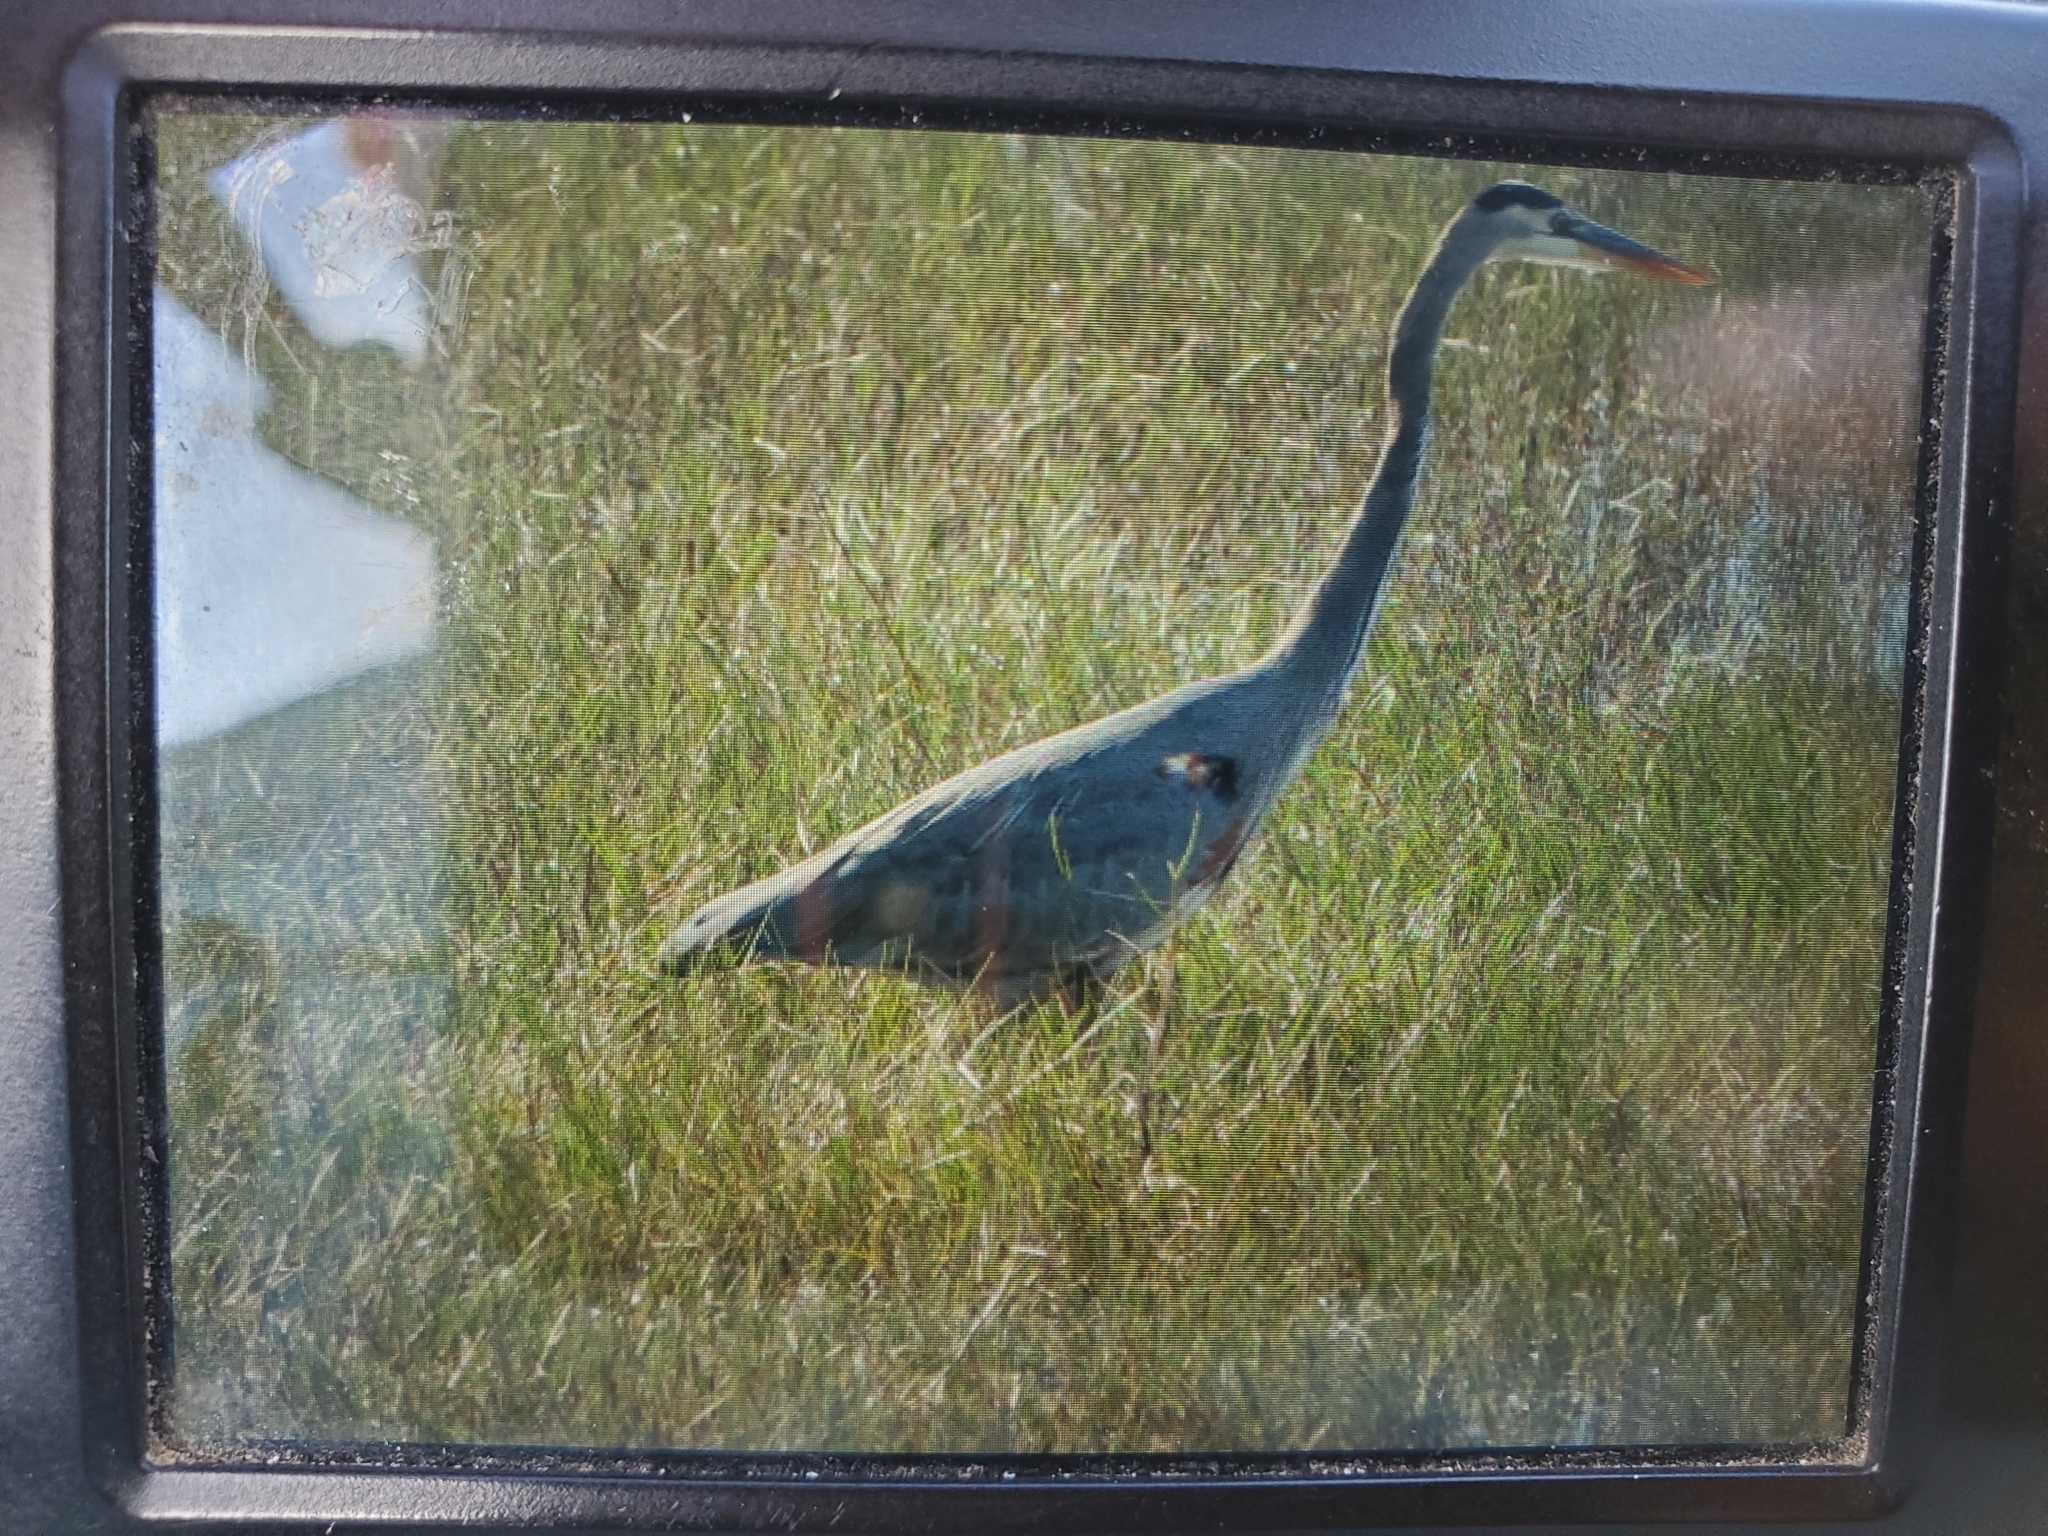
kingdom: Animalia
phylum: Chordata
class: Aves
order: Pelecaniformes
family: Ardeidae
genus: Ardea
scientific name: Ardea herodias
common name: Great blue heron
